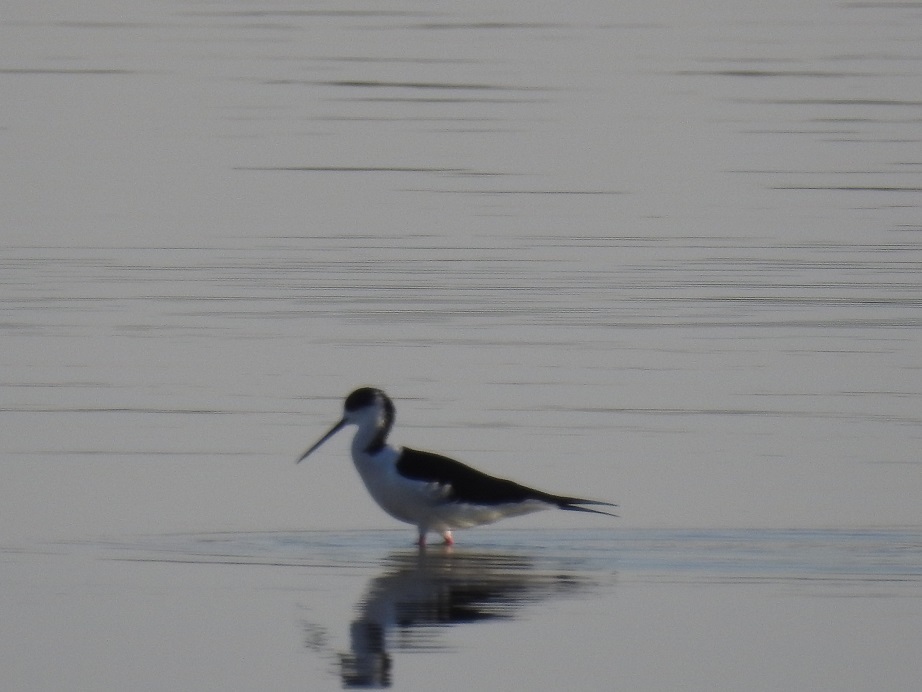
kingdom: Animalia
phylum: Chordata
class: Aves
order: Charadriiformes
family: Recurvirostridae
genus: Himantopus
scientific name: Himantopus himantopus
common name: Black-winged stilt
